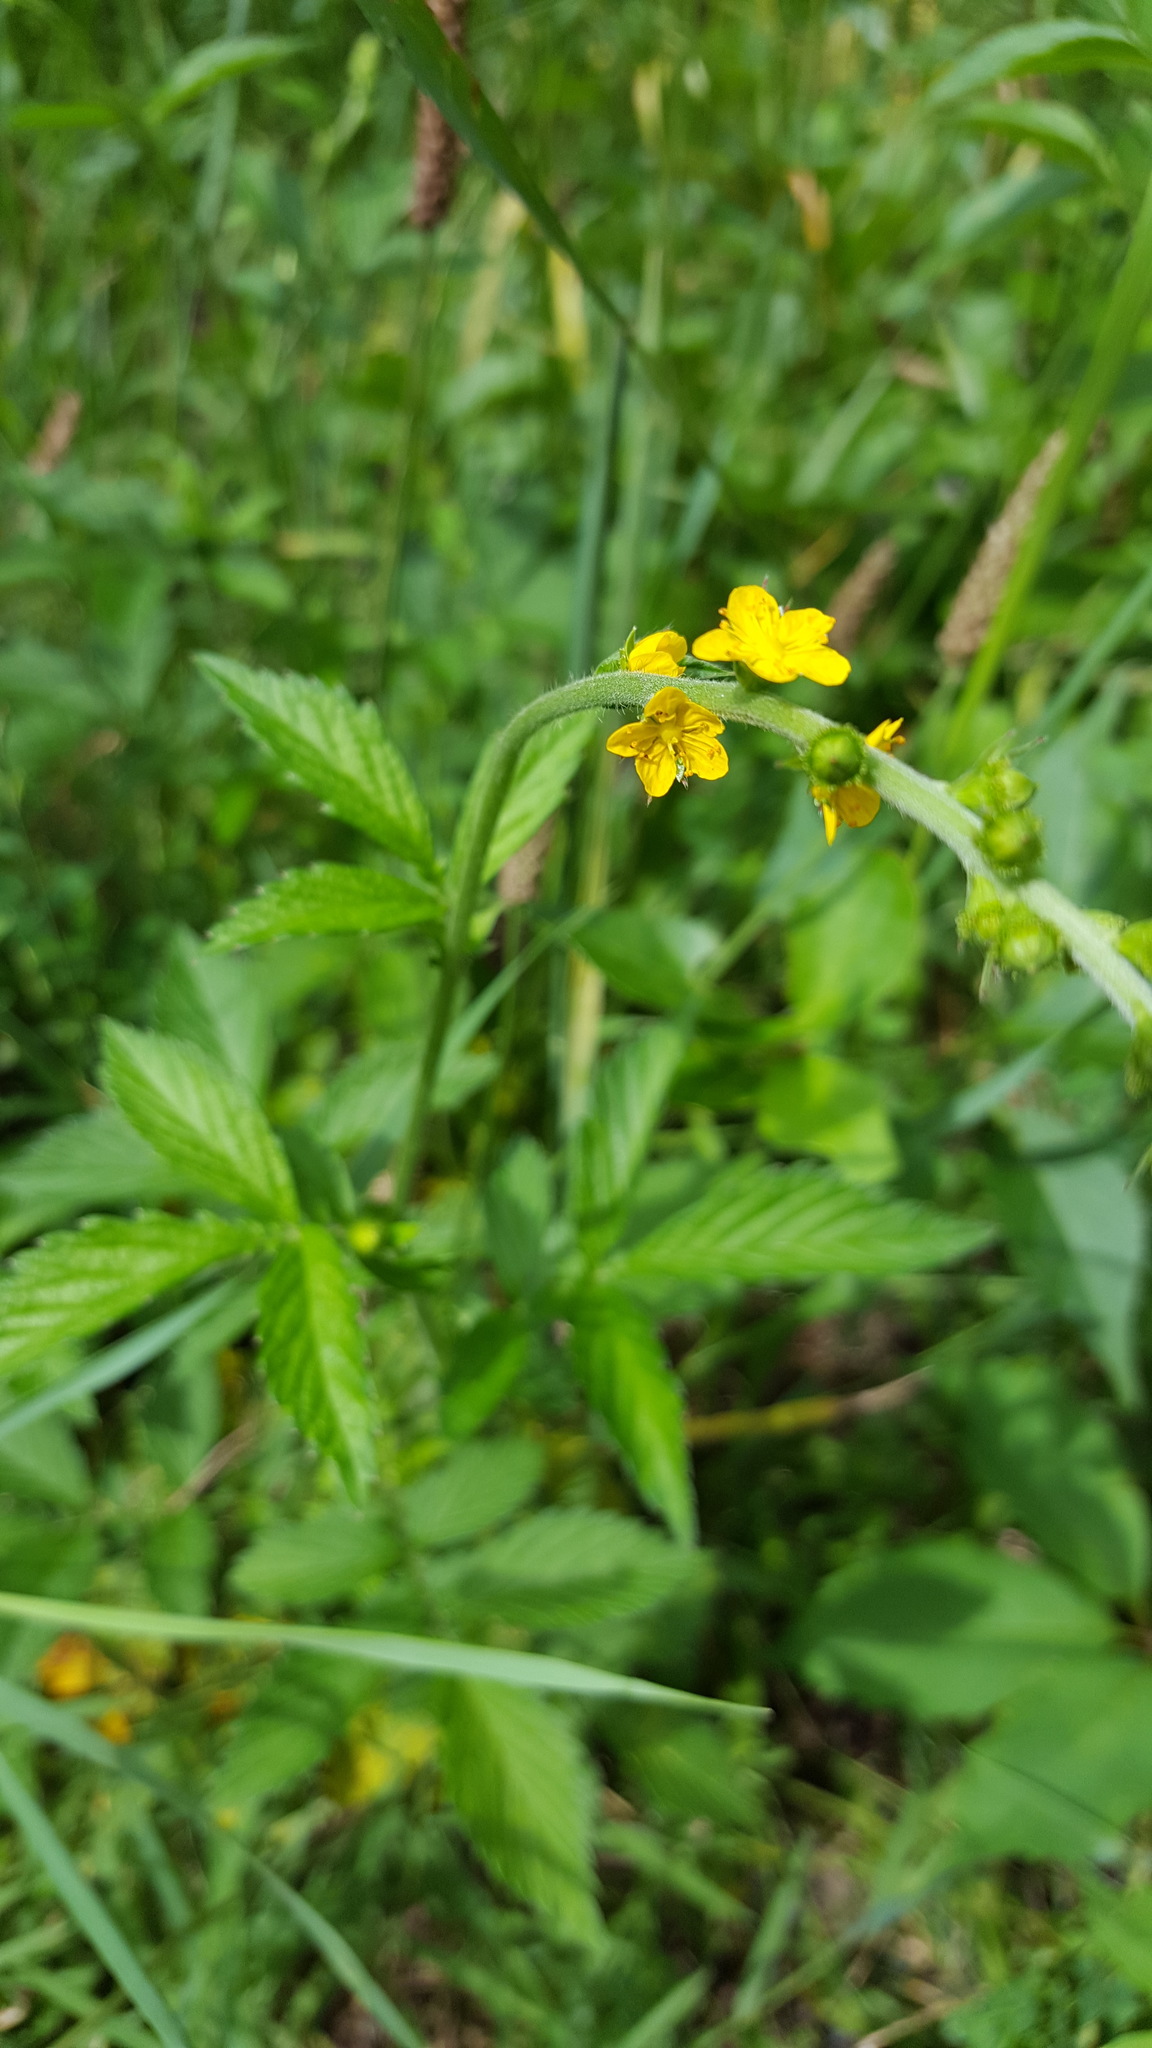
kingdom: Plantae
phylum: Tracheophyta
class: Magnoliopsida
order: Rosales
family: Rosaceae
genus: Agrimonia
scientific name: Agrimonia gryposepala
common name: Common agrimony
